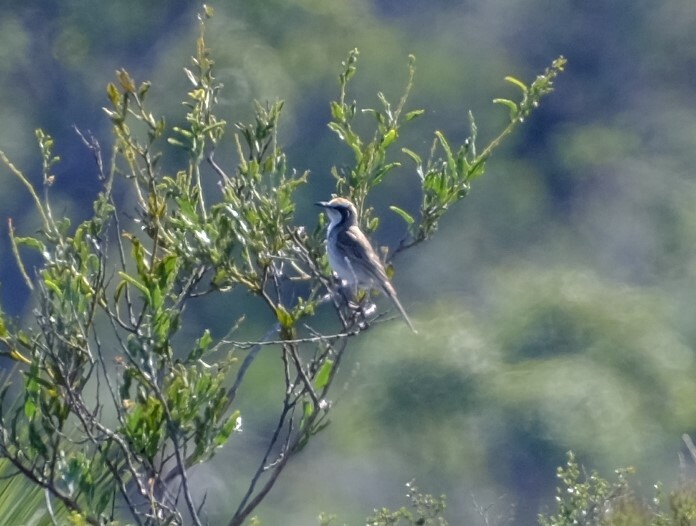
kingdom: Animalia
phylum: Chordata
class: Aves
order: Passeriformes
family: Meliphagidae
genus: Gliciphila
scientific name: Gliciphila melanops
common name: Tawny-crowned honeyeater
